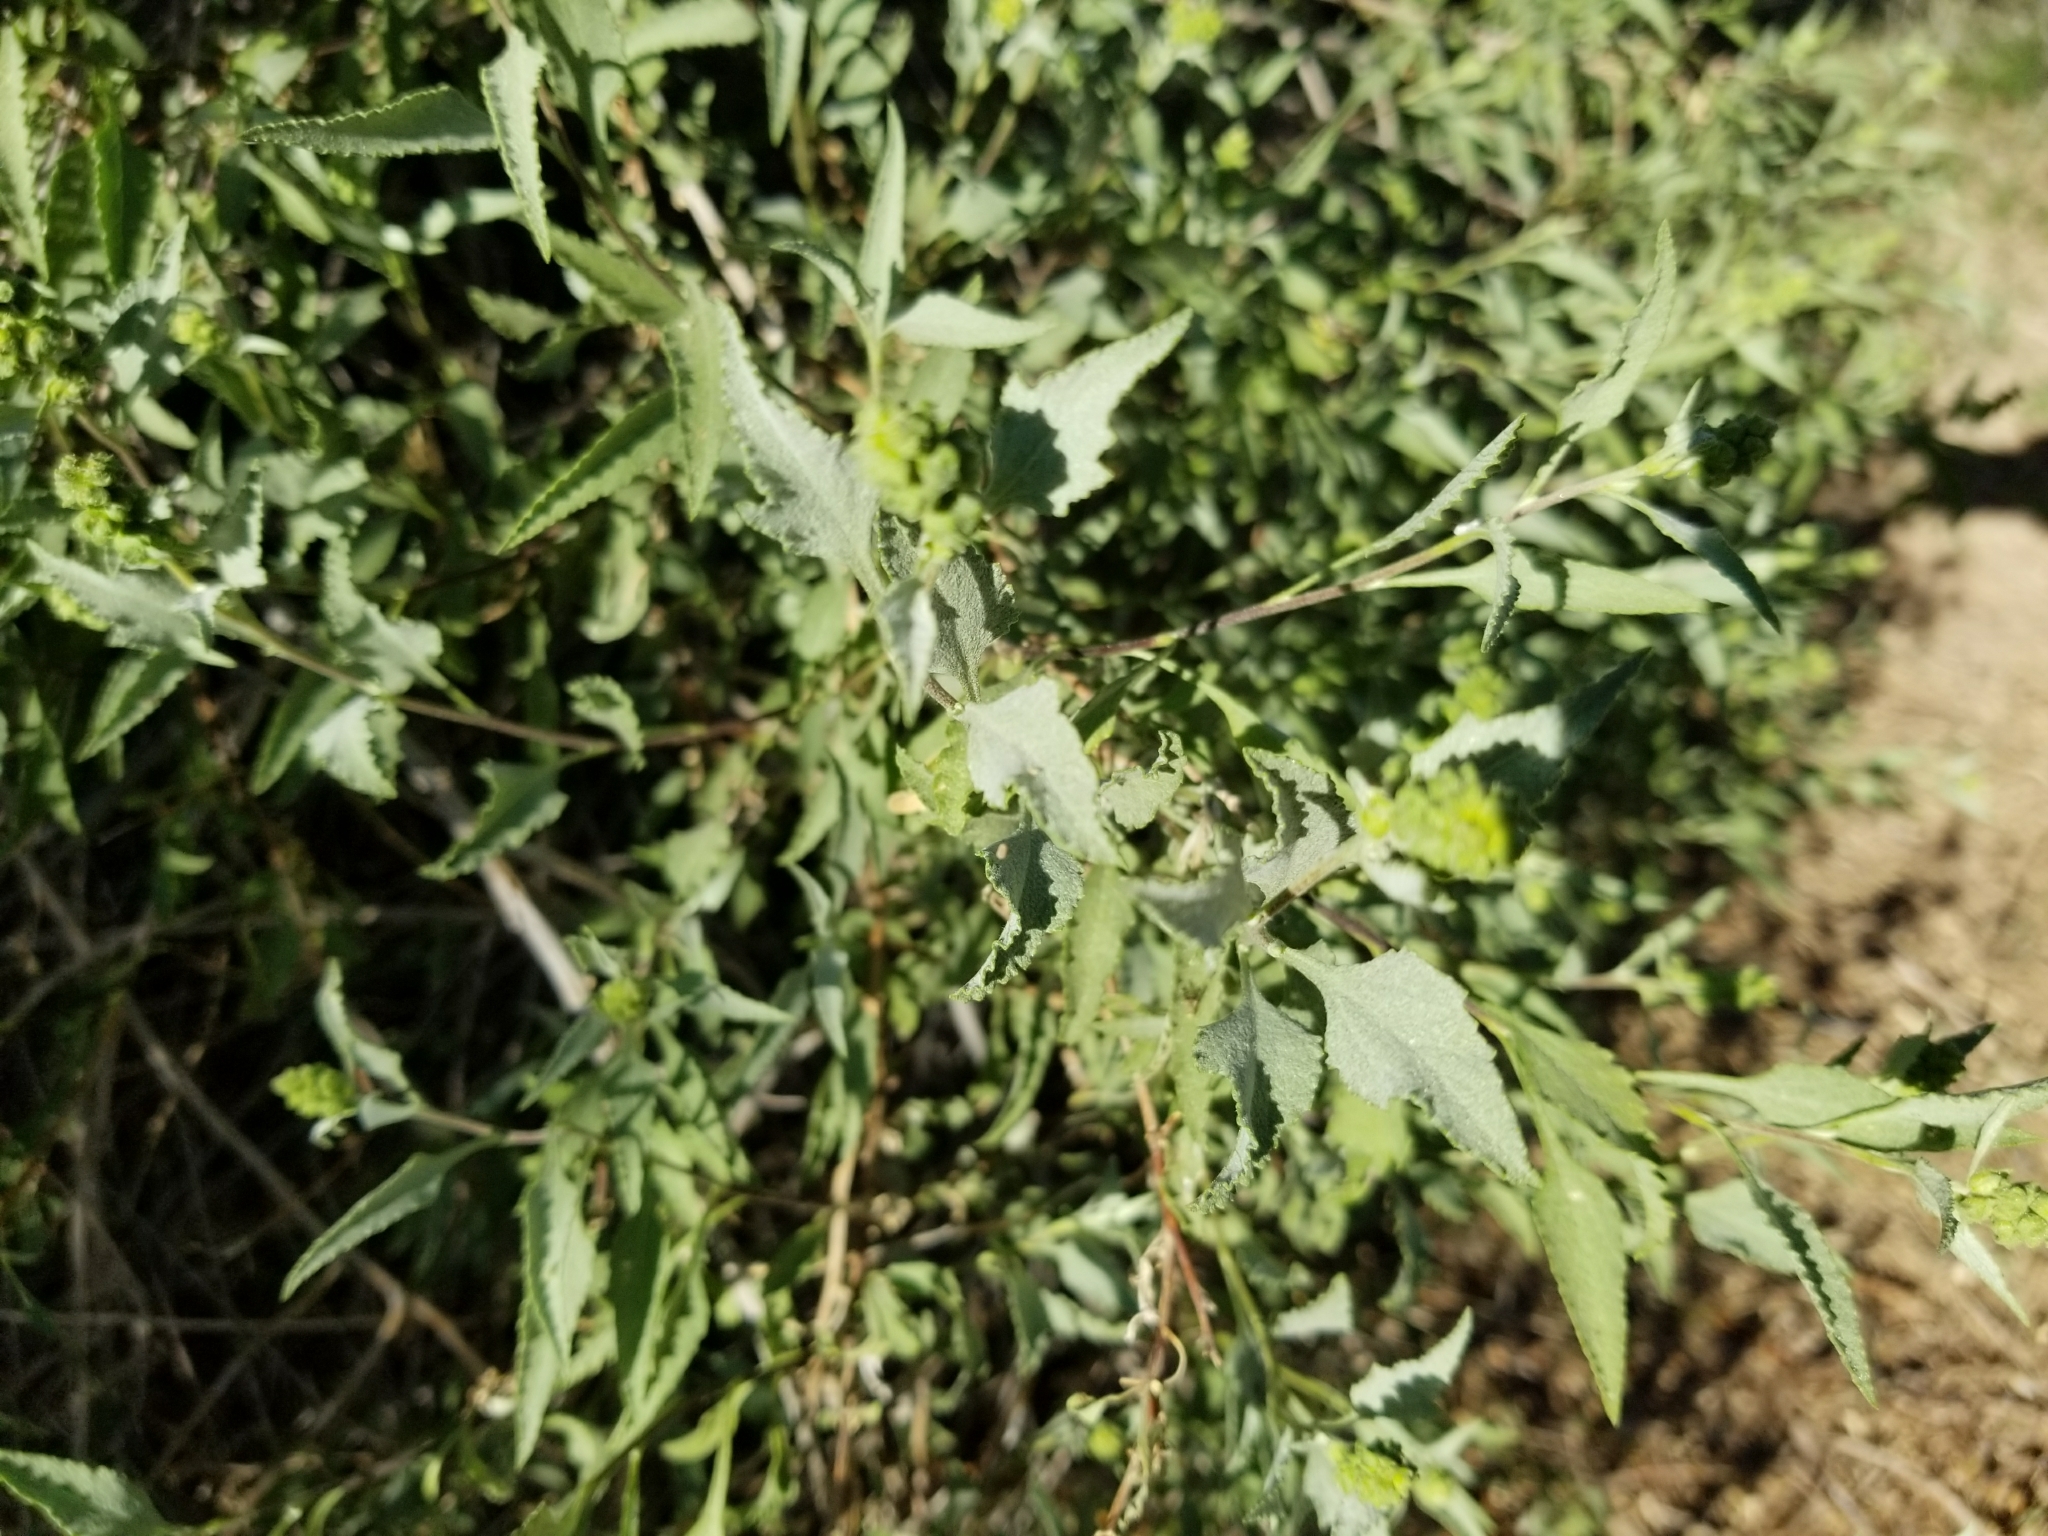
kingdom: Plantae
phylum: Tracheophyta
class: Magnoliopsida
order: Asterales
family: Asteraceae
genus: Ambrosia
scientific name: Ambrosia deltoidea
